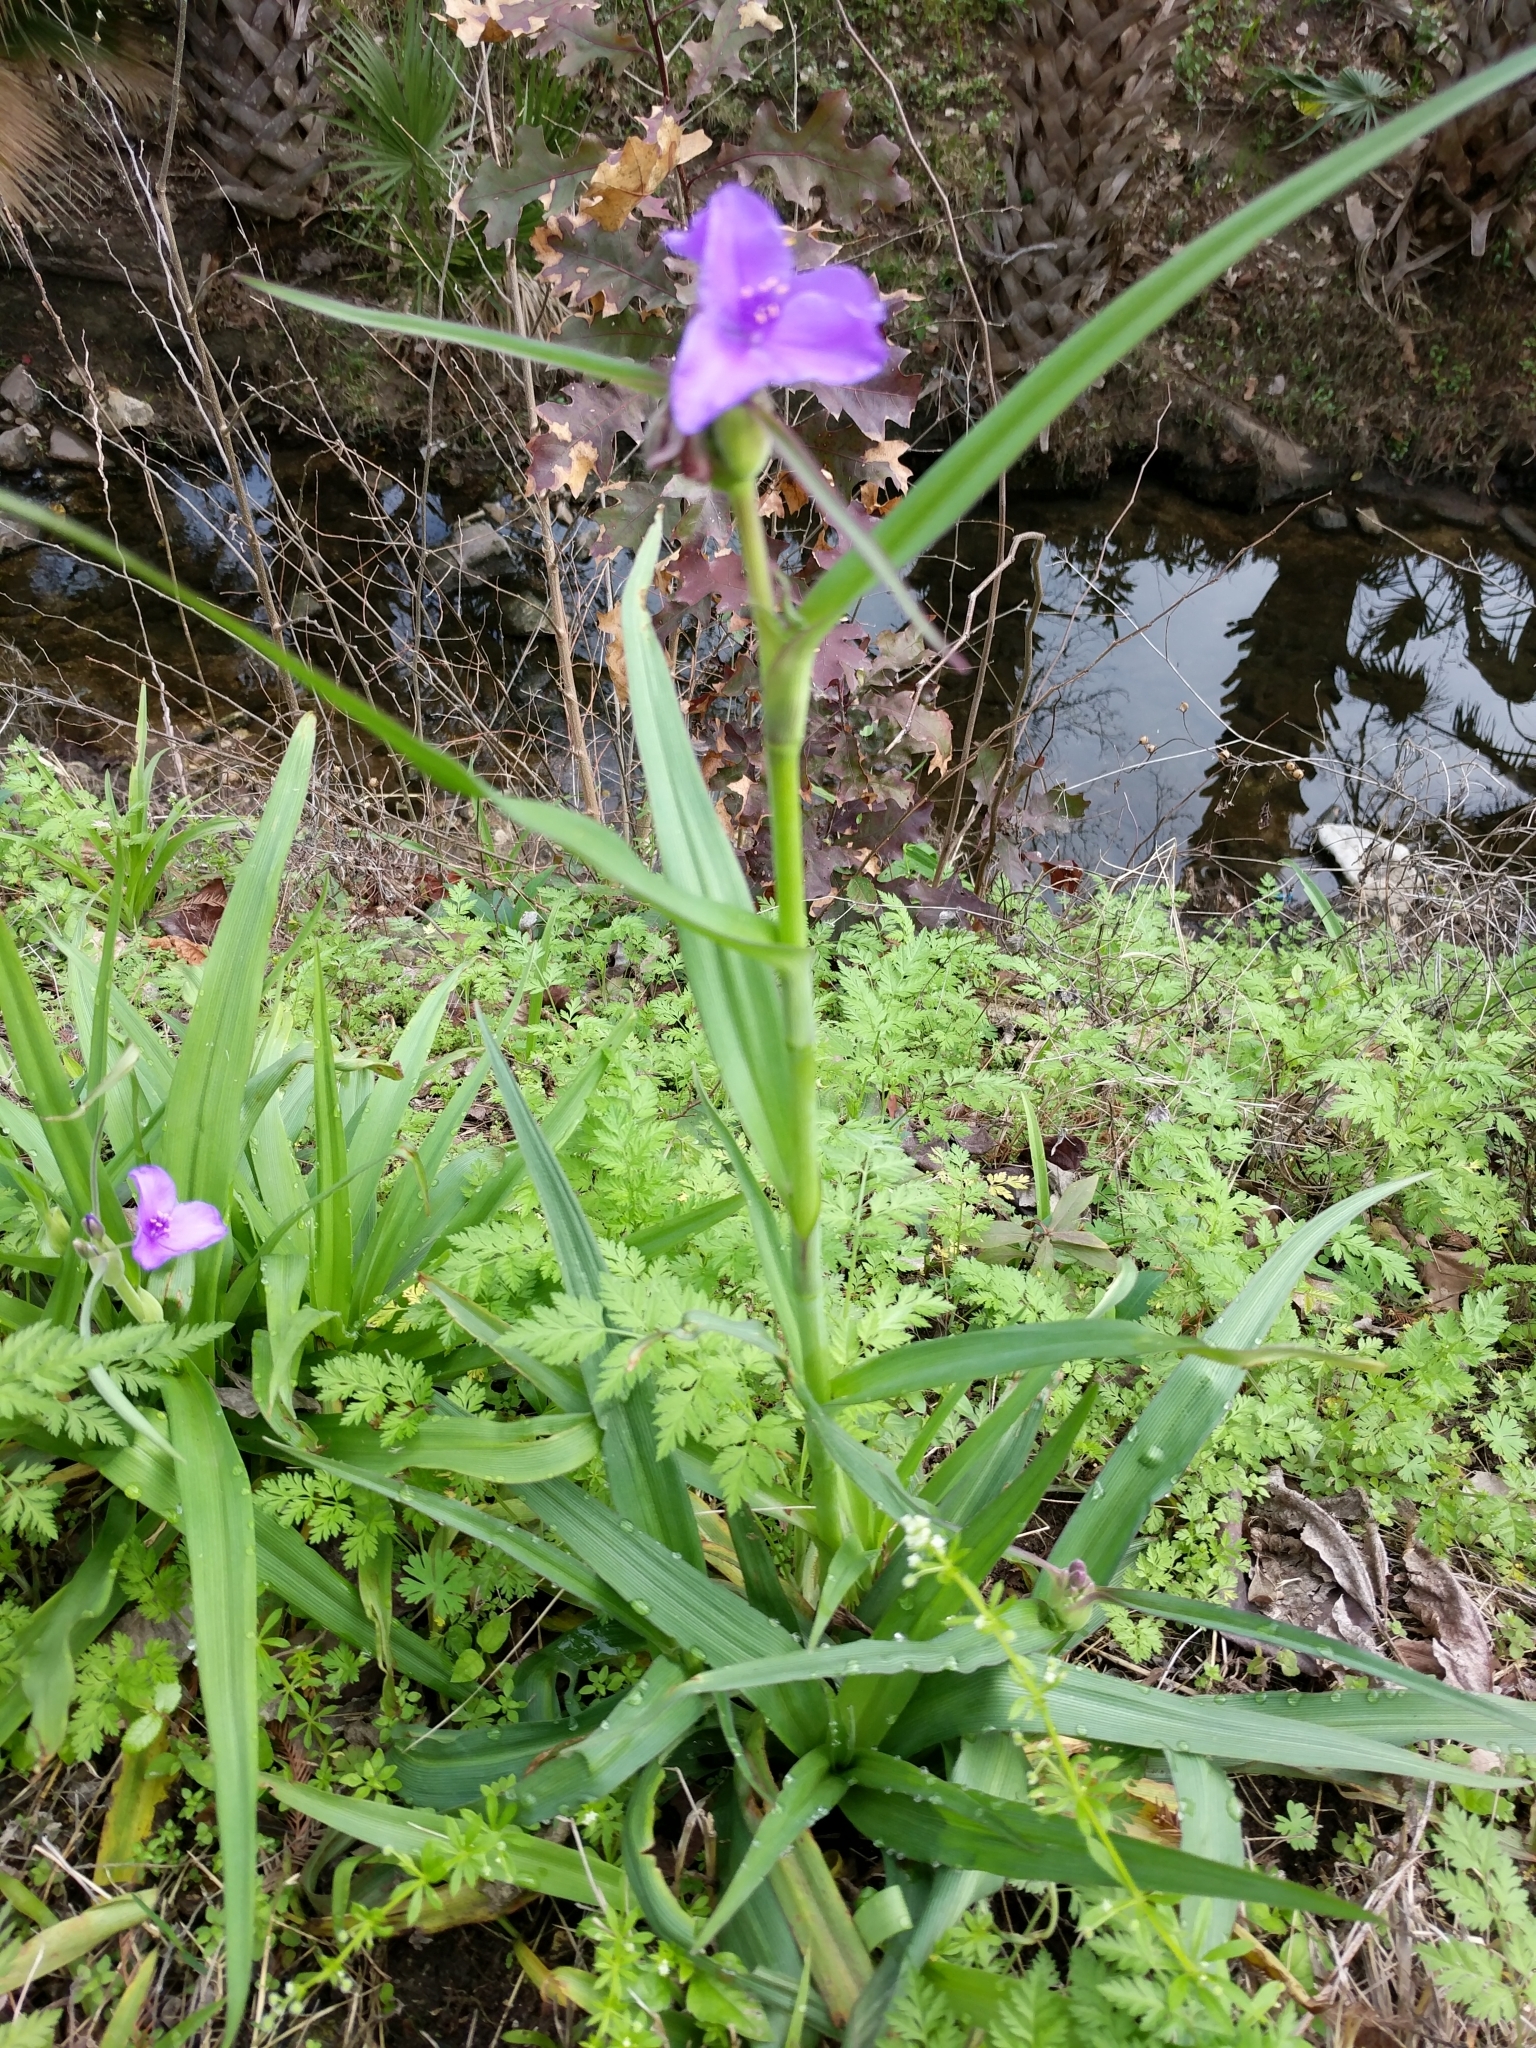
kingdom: Plantae
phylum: Tracheophyta
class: Liliopsida
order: Commelinales
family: Commelinaceae
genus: Tradescantia
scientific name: Tradescantia gigantea
